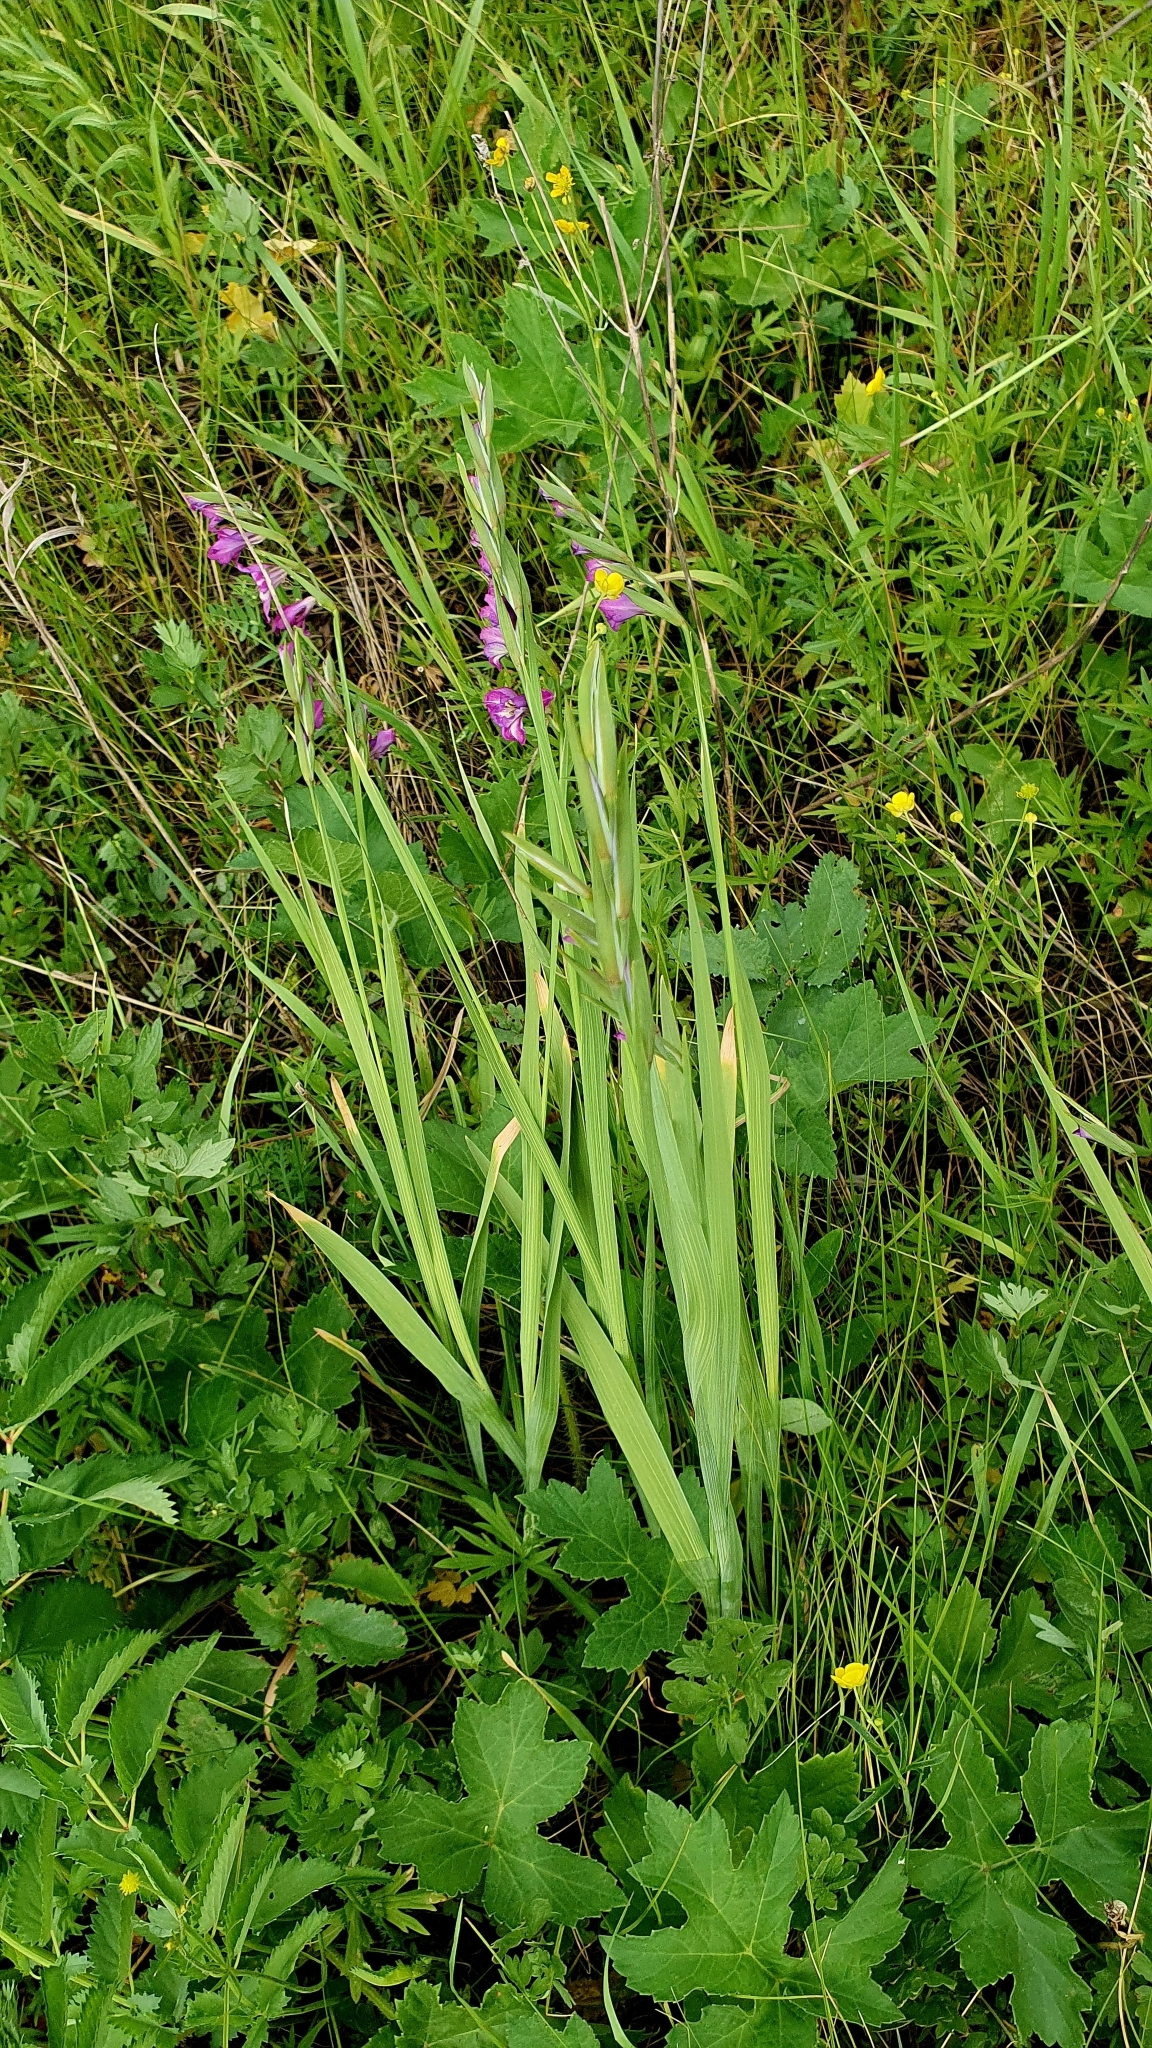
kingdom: Plantae
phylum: Tracheophyta
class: Liliopsida
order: Asparagales
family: Iridaceae
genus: Gladiolus
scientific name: Gladiolus tenuis
